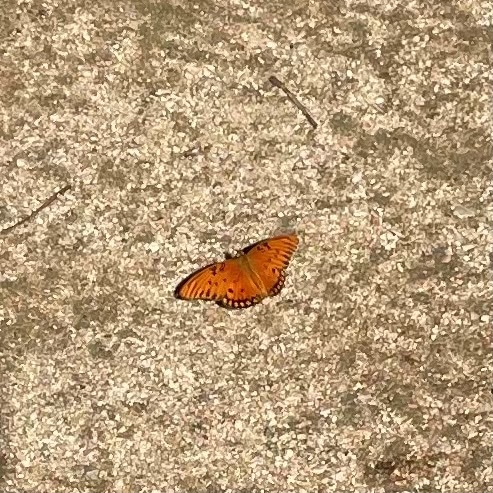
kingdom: Animalia
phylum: Arthropoda
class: Insecta
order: Lepidoptera
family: Nymphalidae
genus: Dione
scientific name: Dione vanillae
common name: Gulf fritillary
